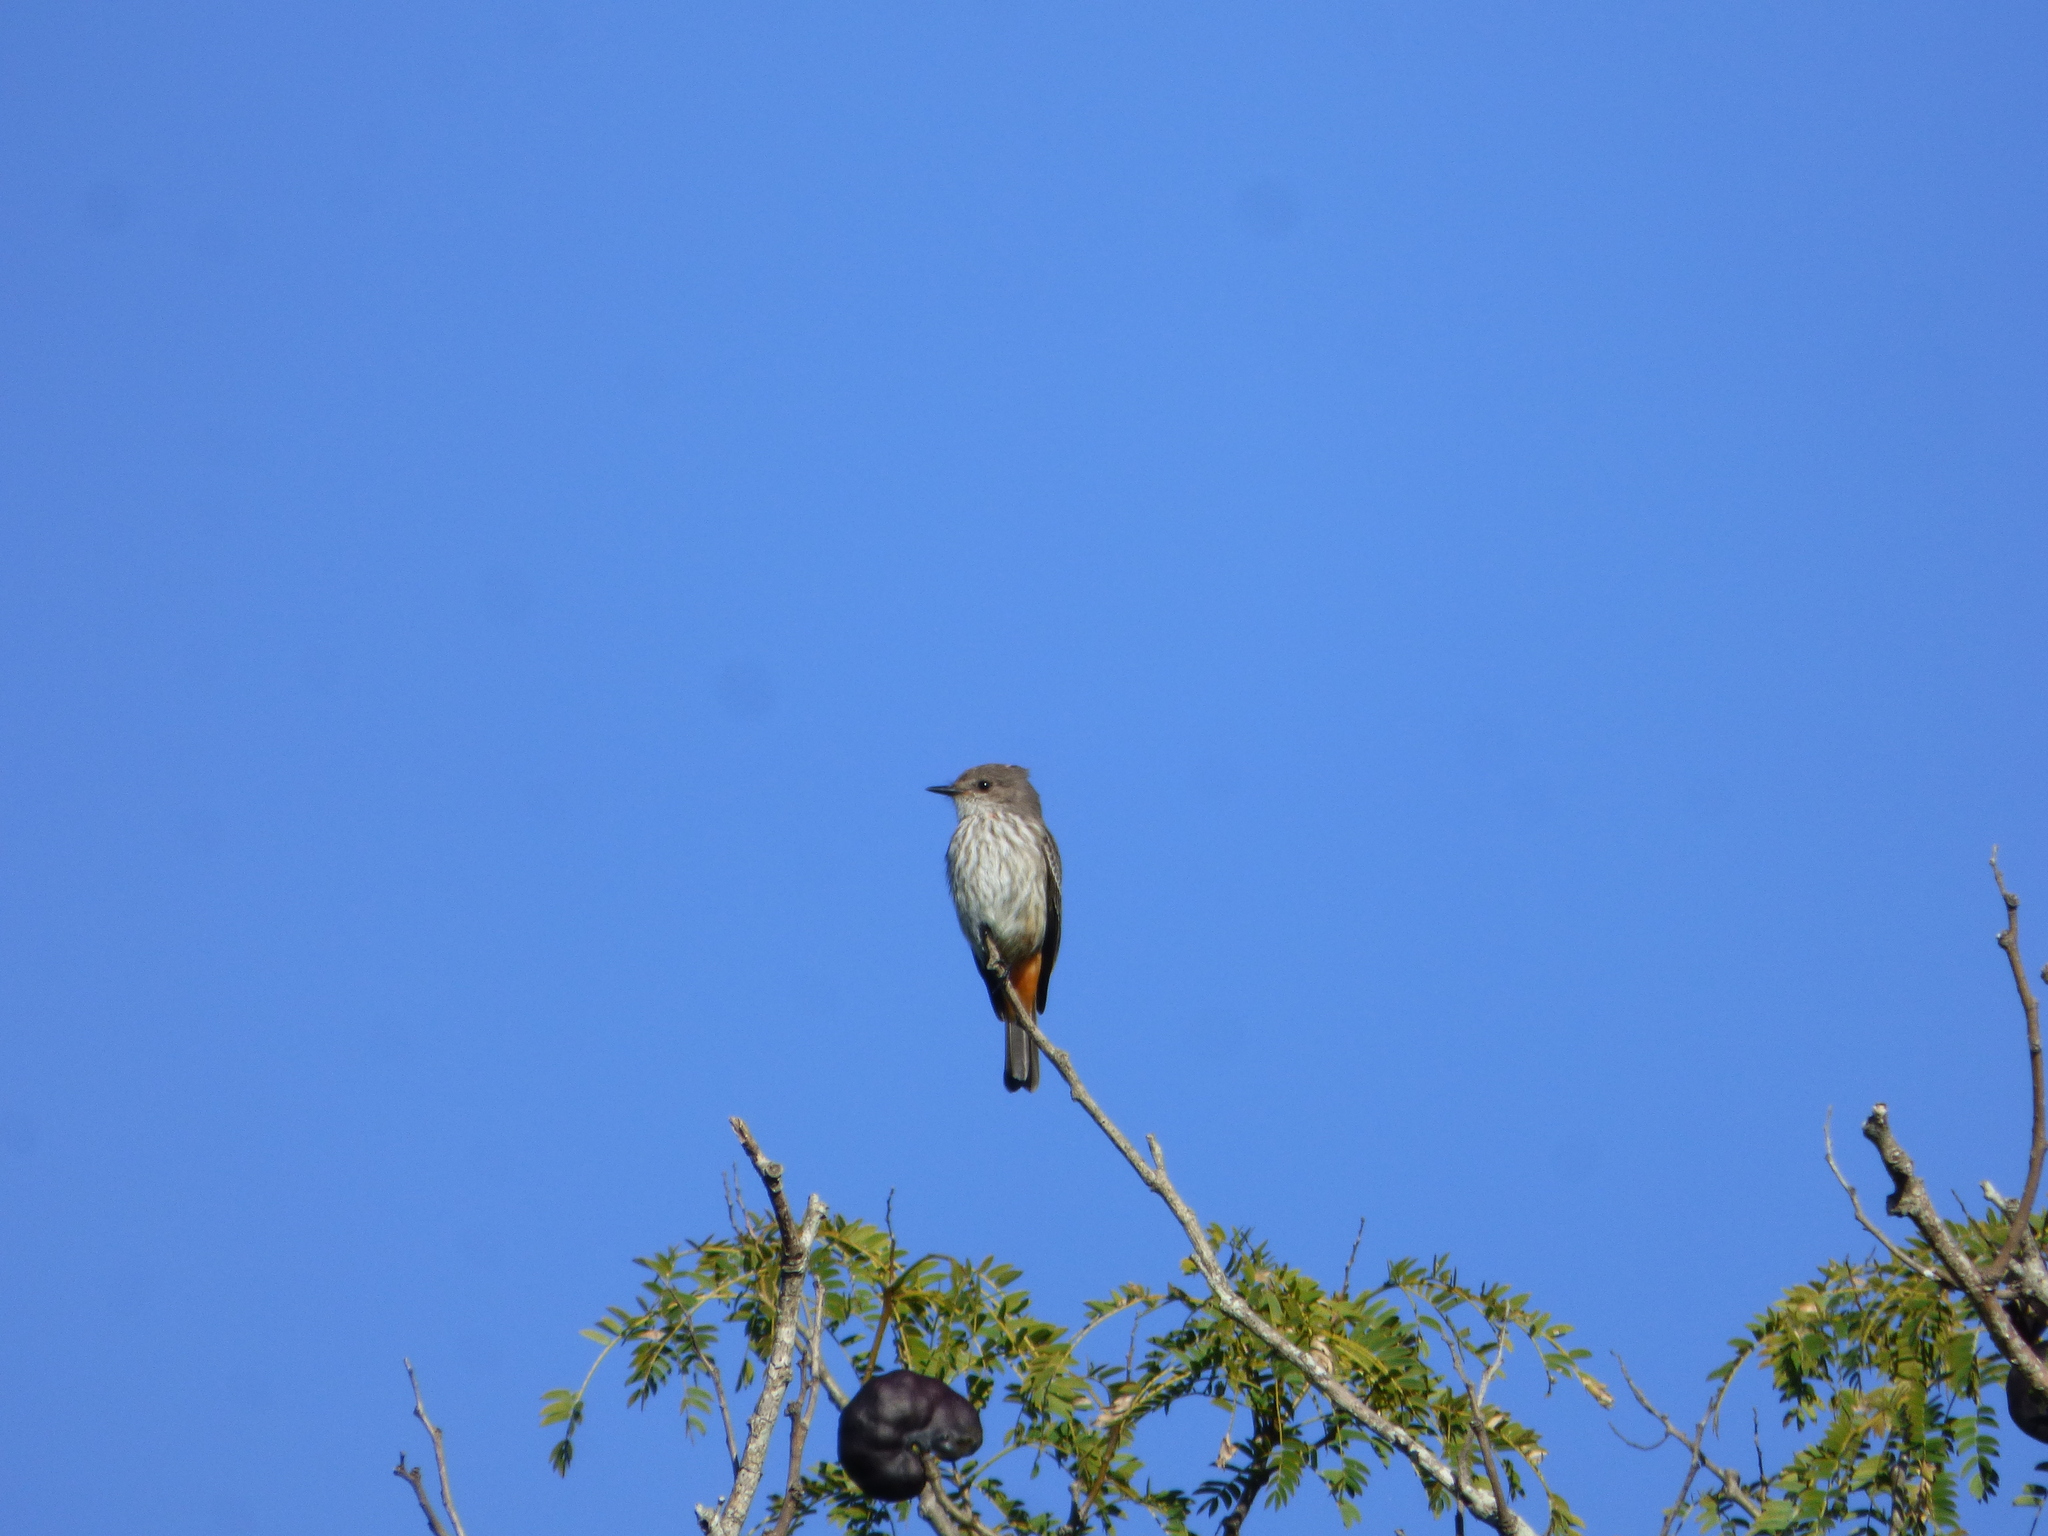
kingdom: Animalia
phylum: Chordata
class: Aves
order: Passeriformes
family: Tyrannidae
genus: Pyrocephalus
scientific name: Pyrocephalus rubinus
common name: Vermilion flycatcher
